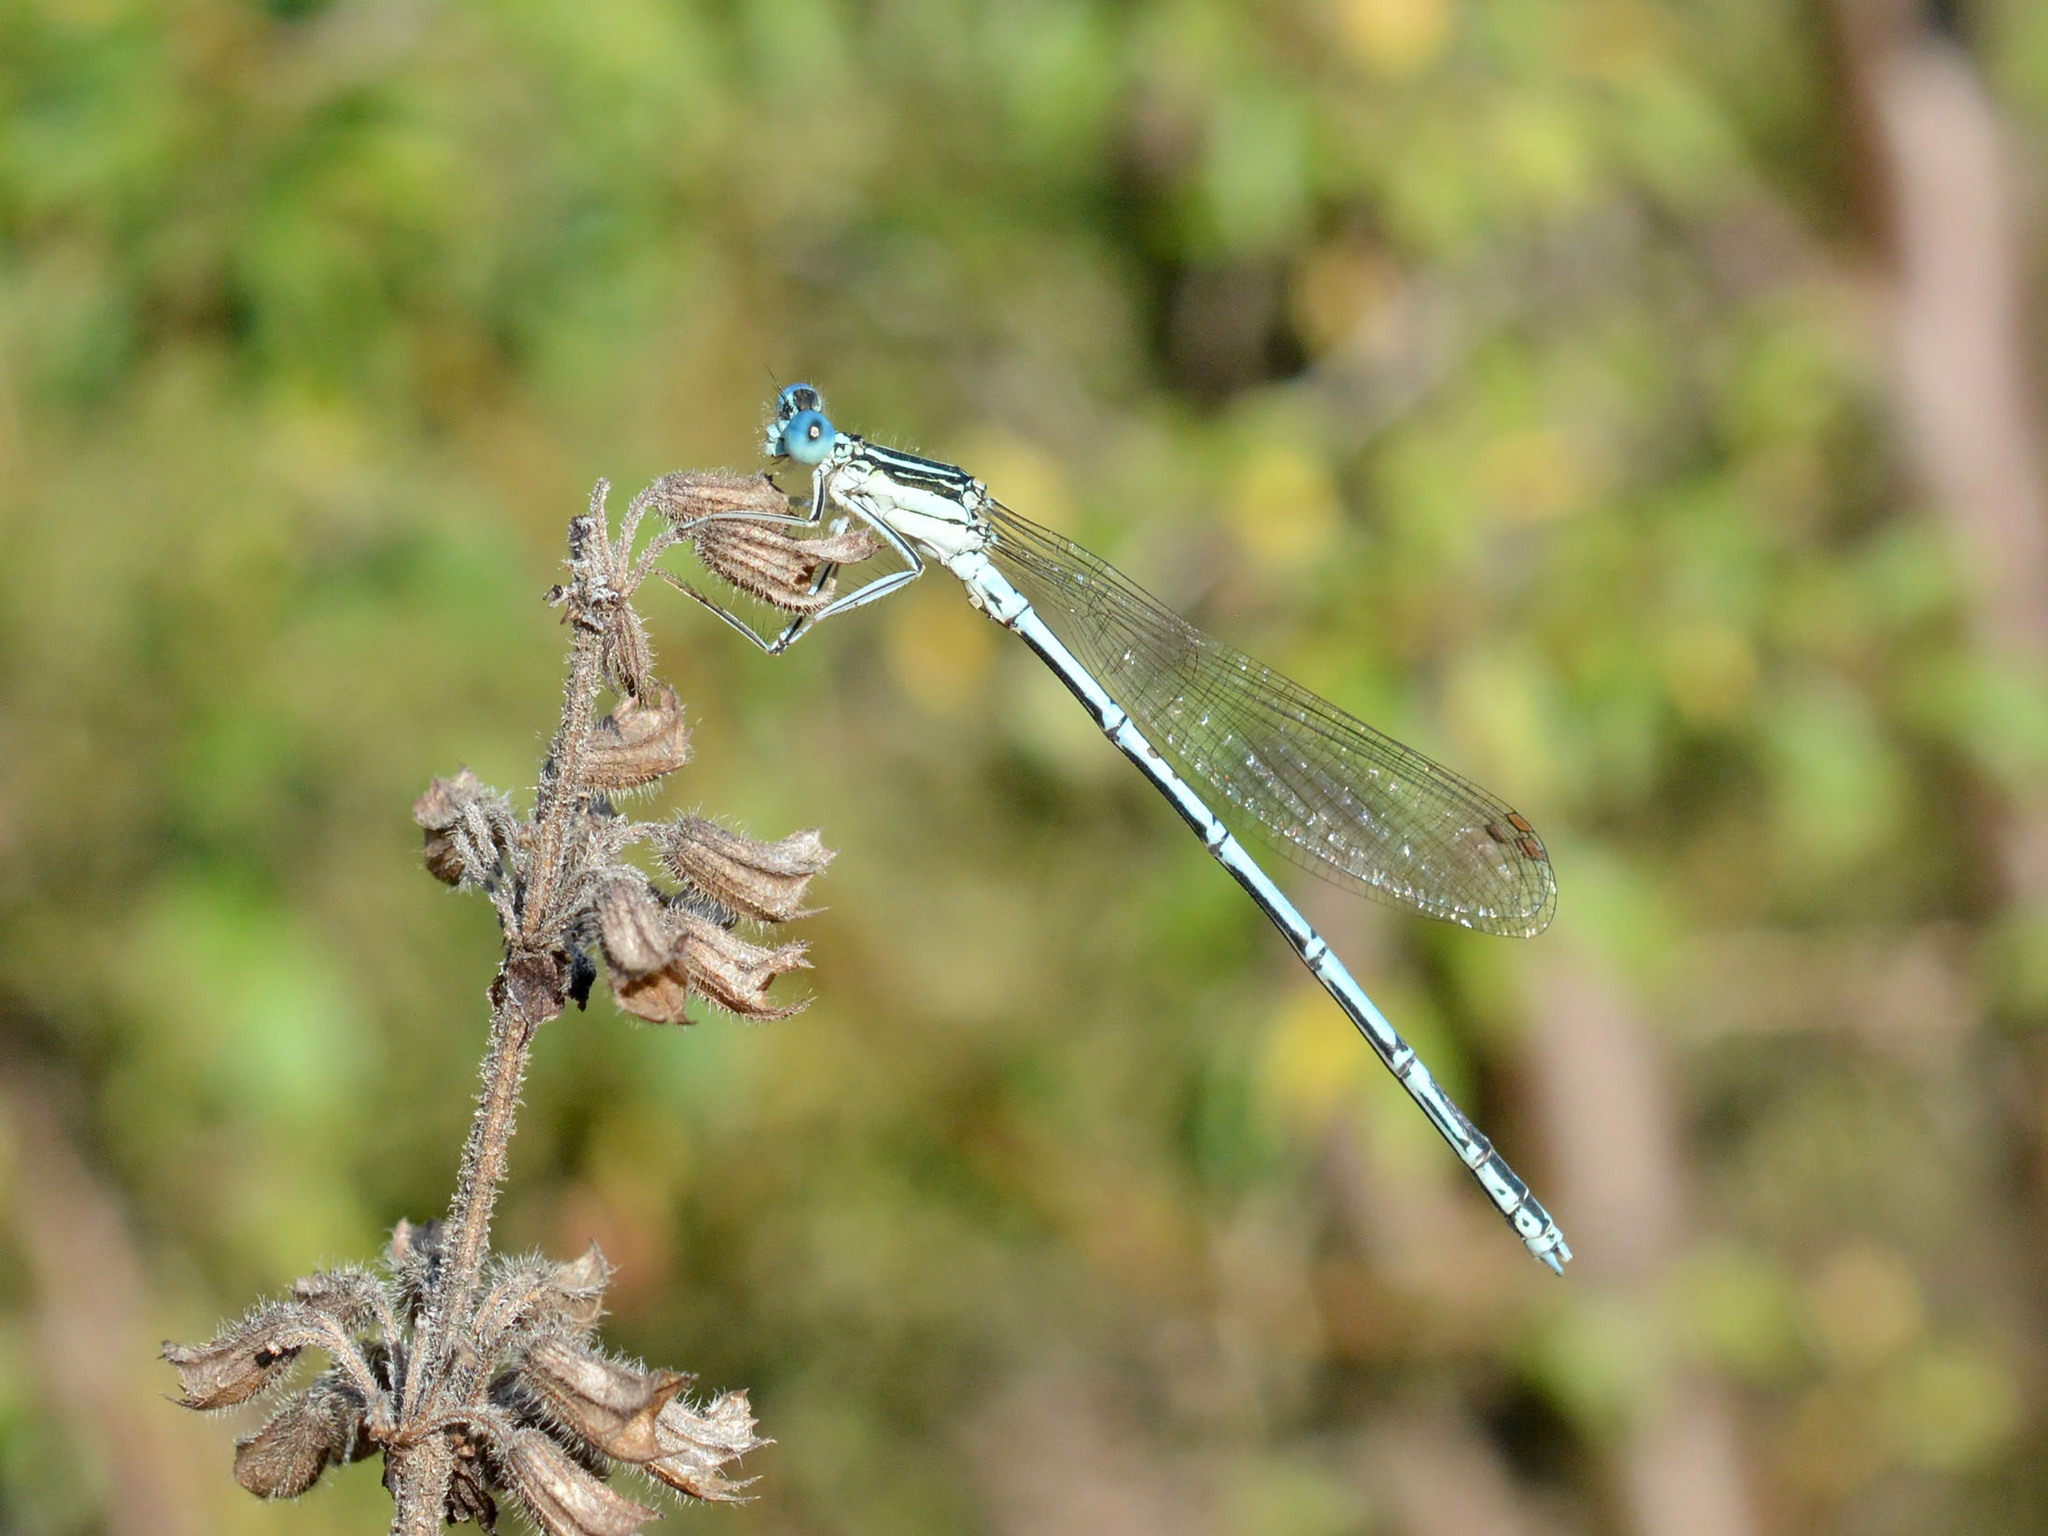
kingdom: Animalia
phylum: Arthropoda
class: Insecta
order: Odonata
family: Platycnemididae
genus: Platycnemis
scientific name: Platycnemis pennipes
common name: White-legged damselfly
